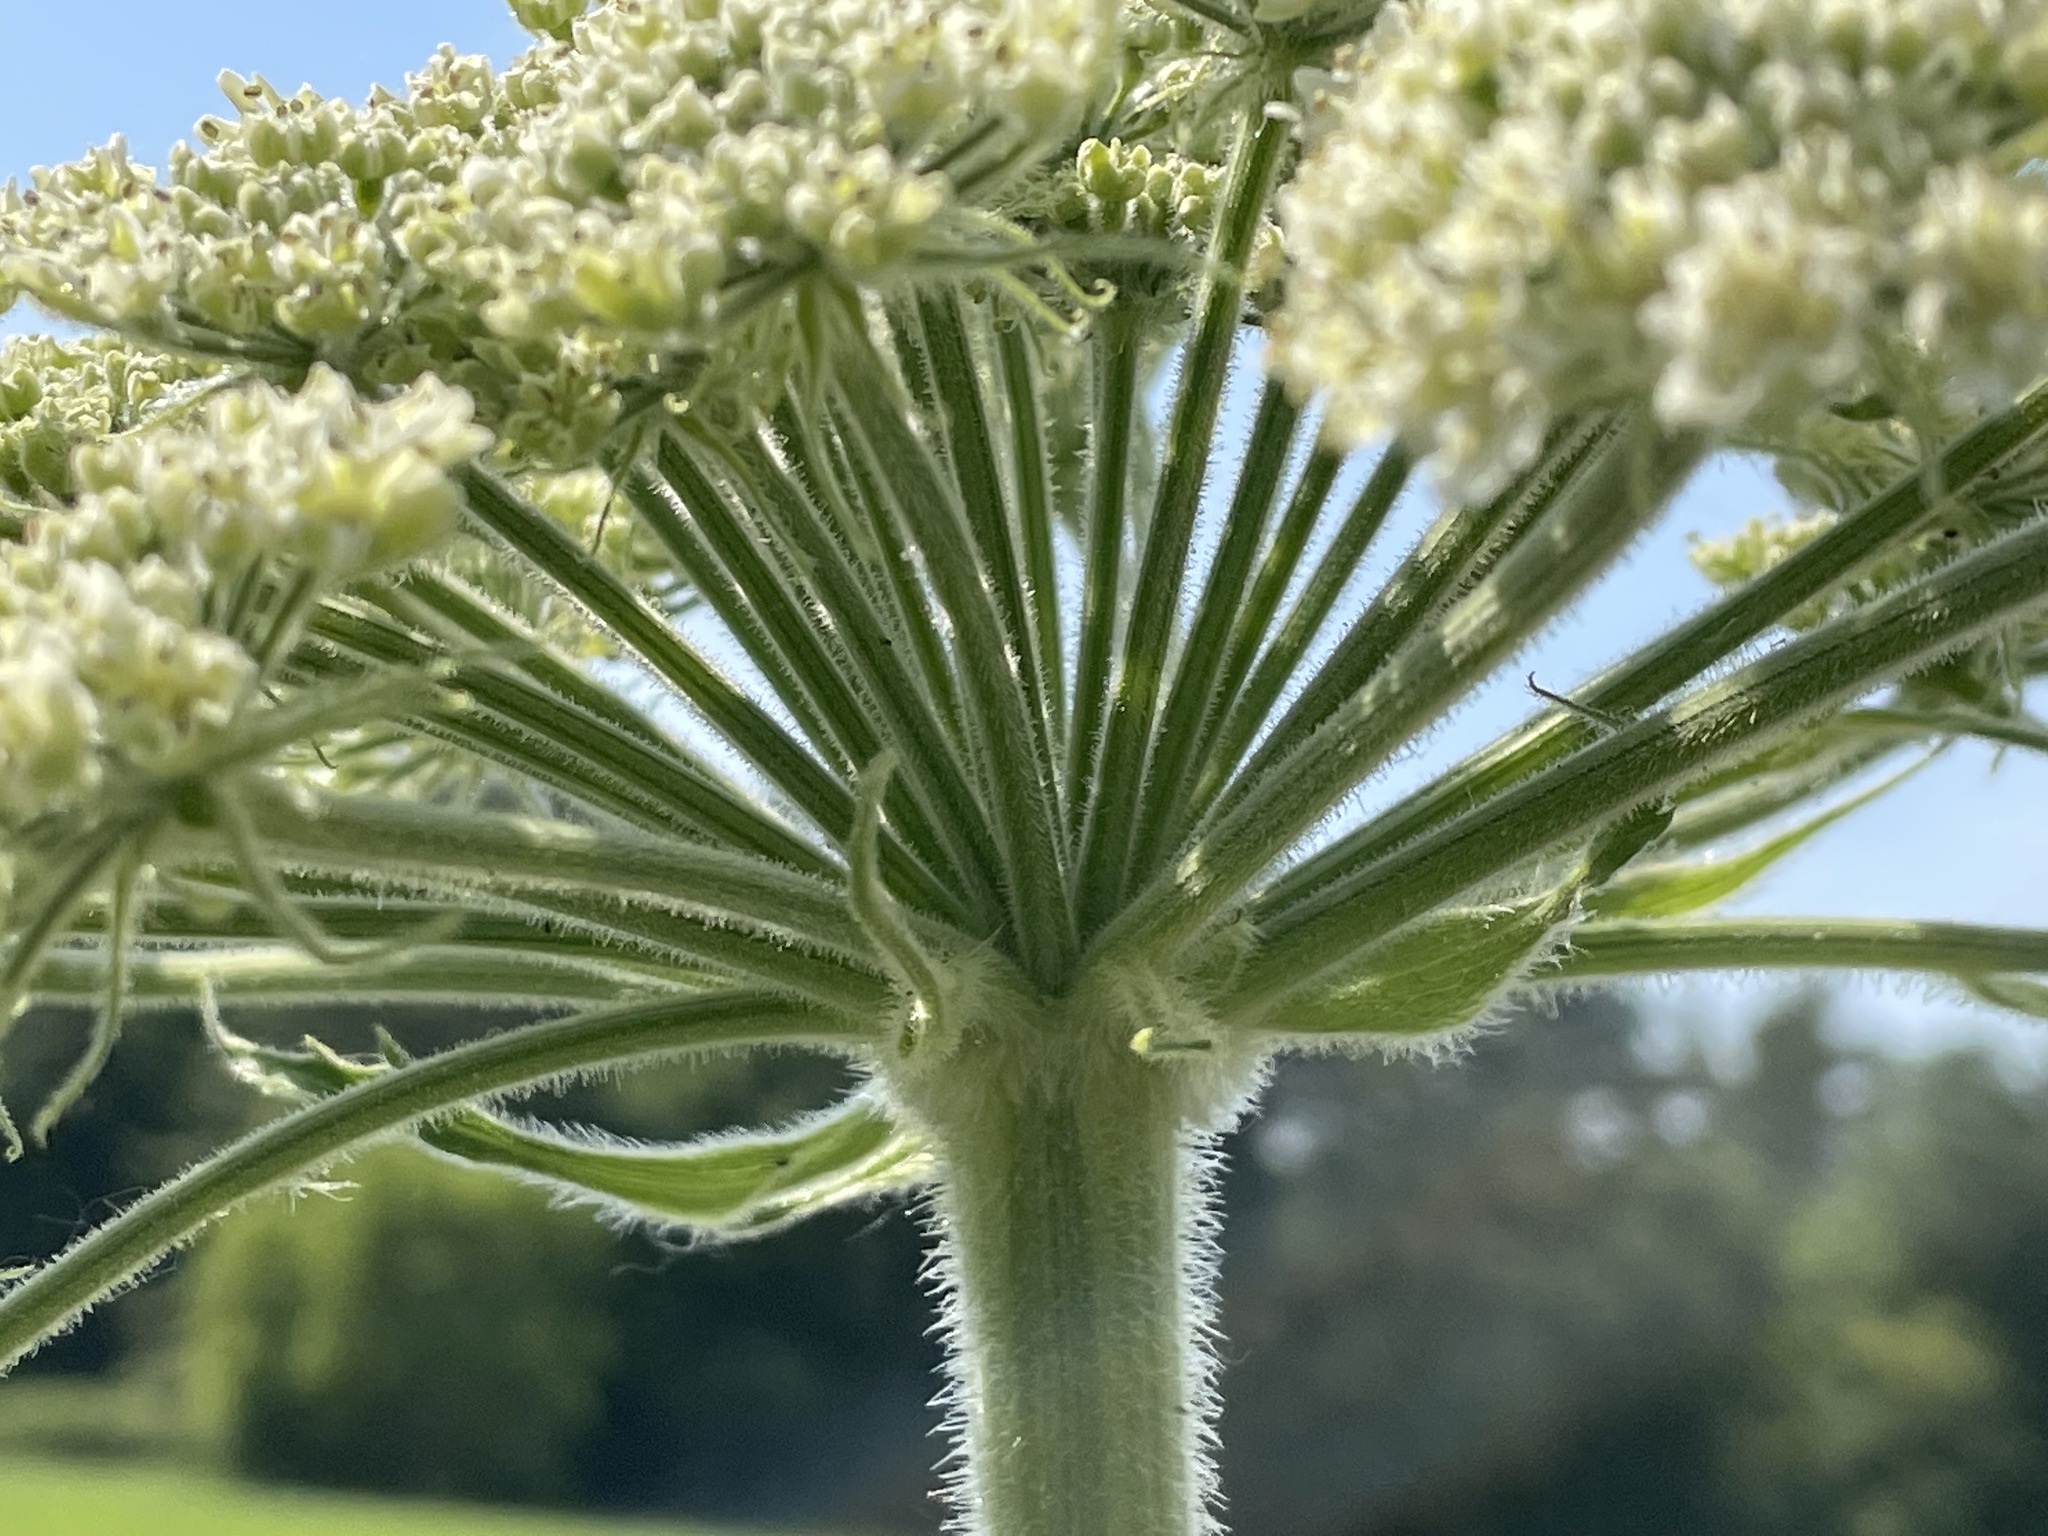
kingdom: Plantae
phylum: Tracheophyta
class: Magnoliopsida
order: Apiales
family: Apiaceae
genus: Heracleum
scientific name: Heracleum maximum
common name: American cow parsnip
